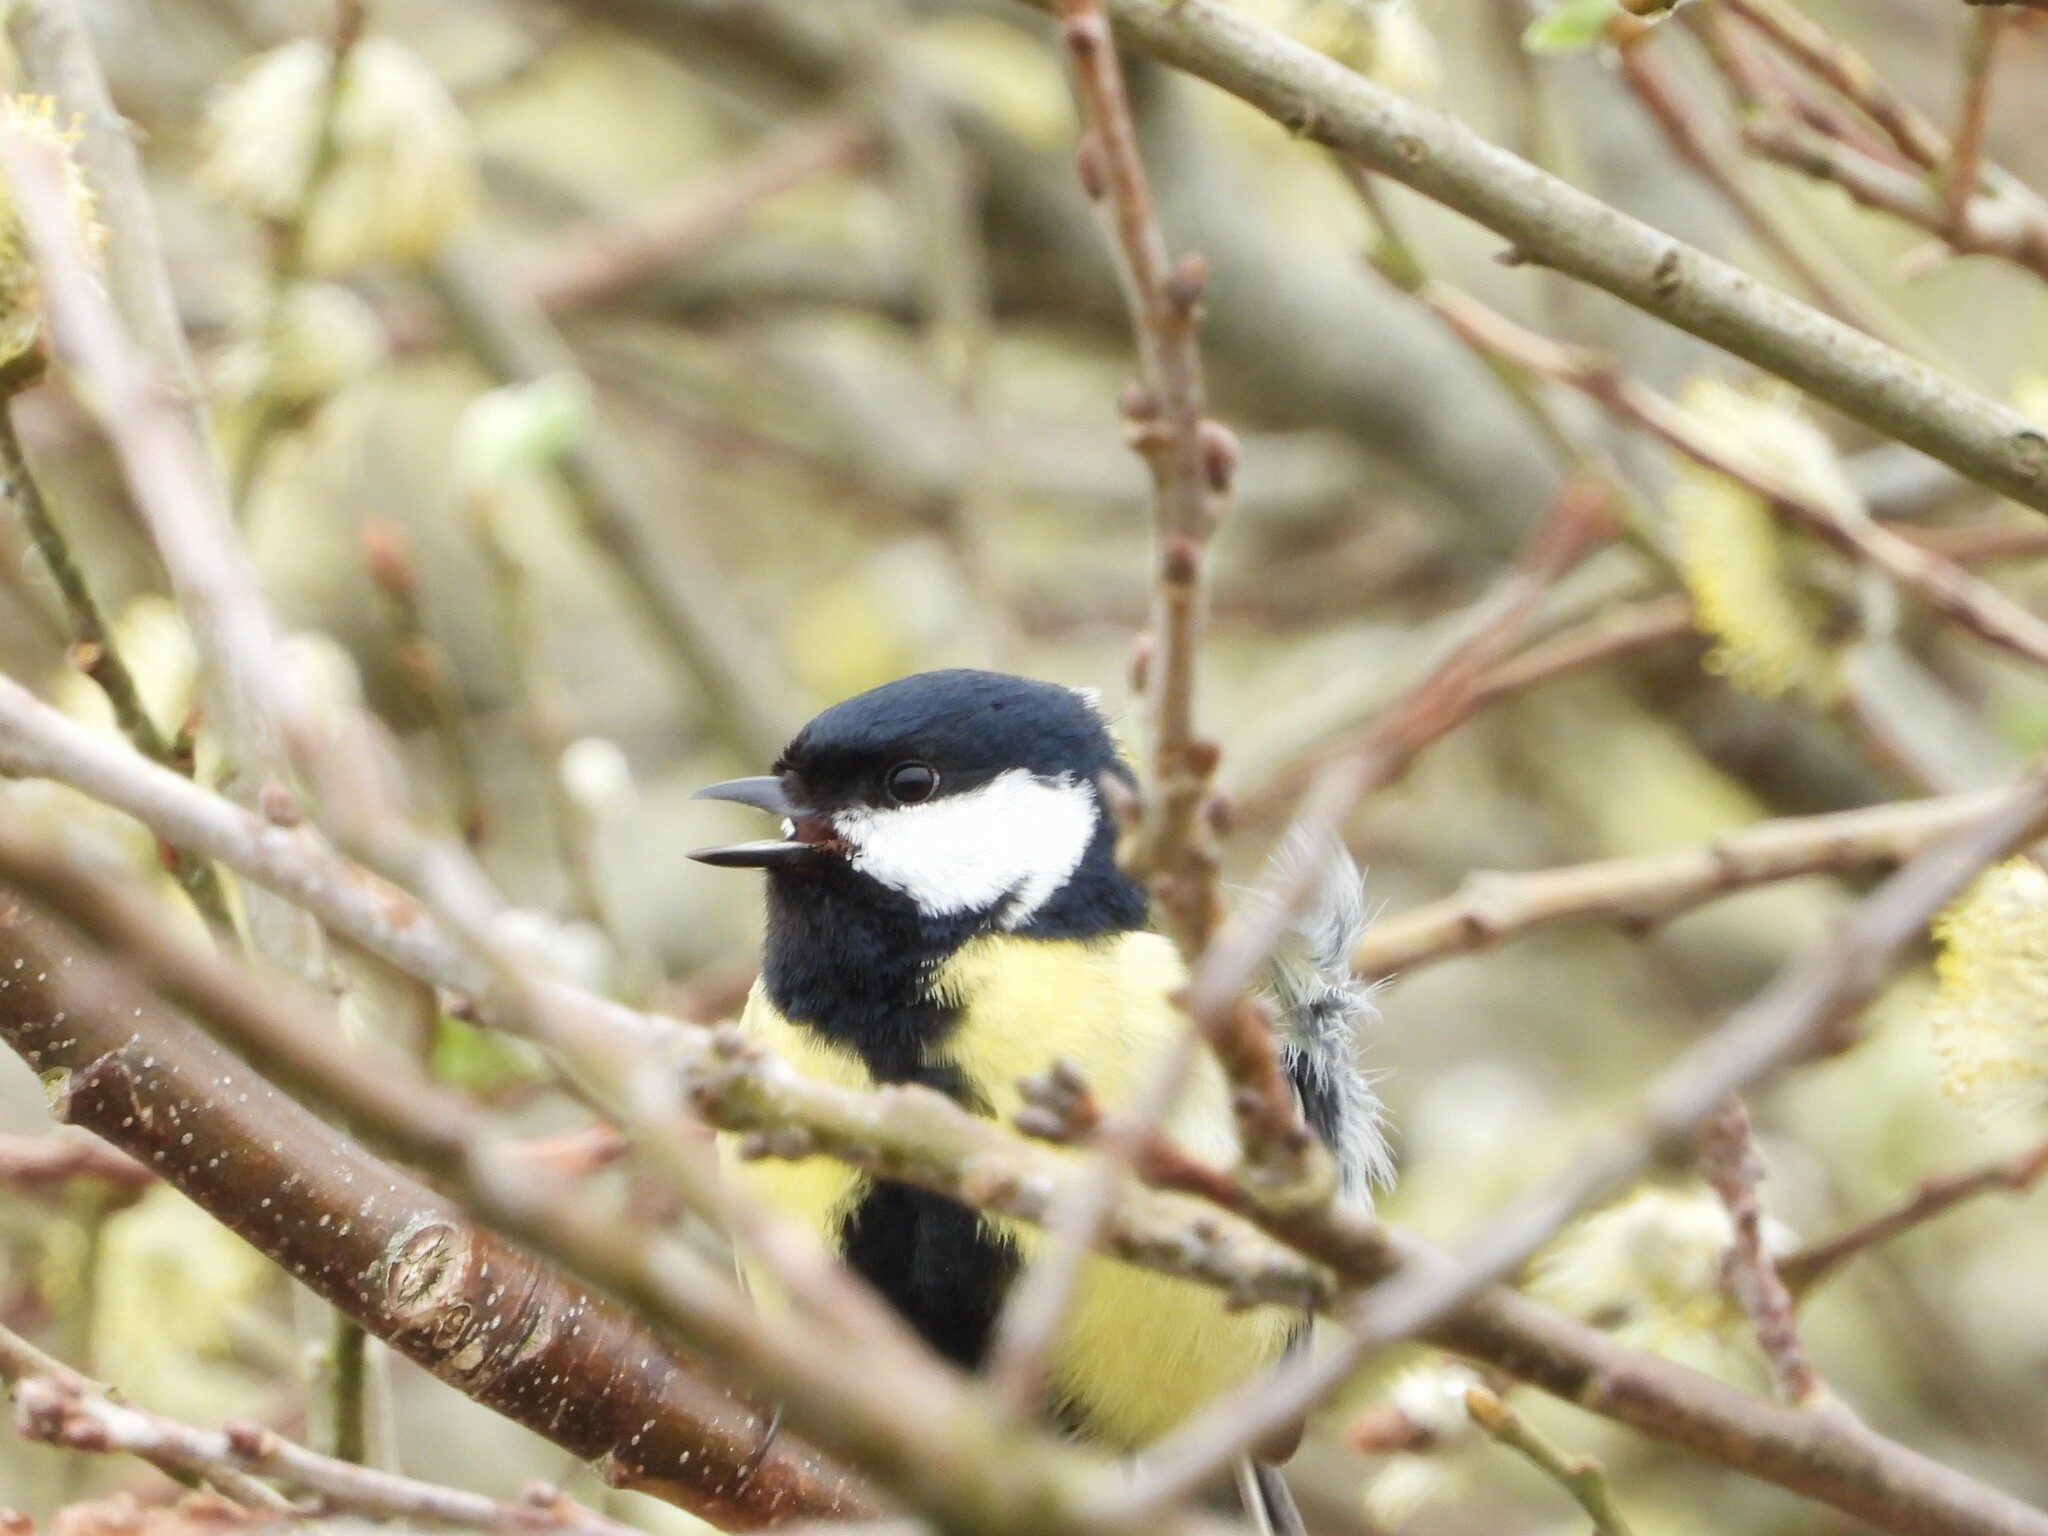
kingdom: Animalia
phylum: Chordata
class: Aves
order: Passeriformes
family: Paridae
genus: Parus
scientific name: Parus major
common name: Great tit
